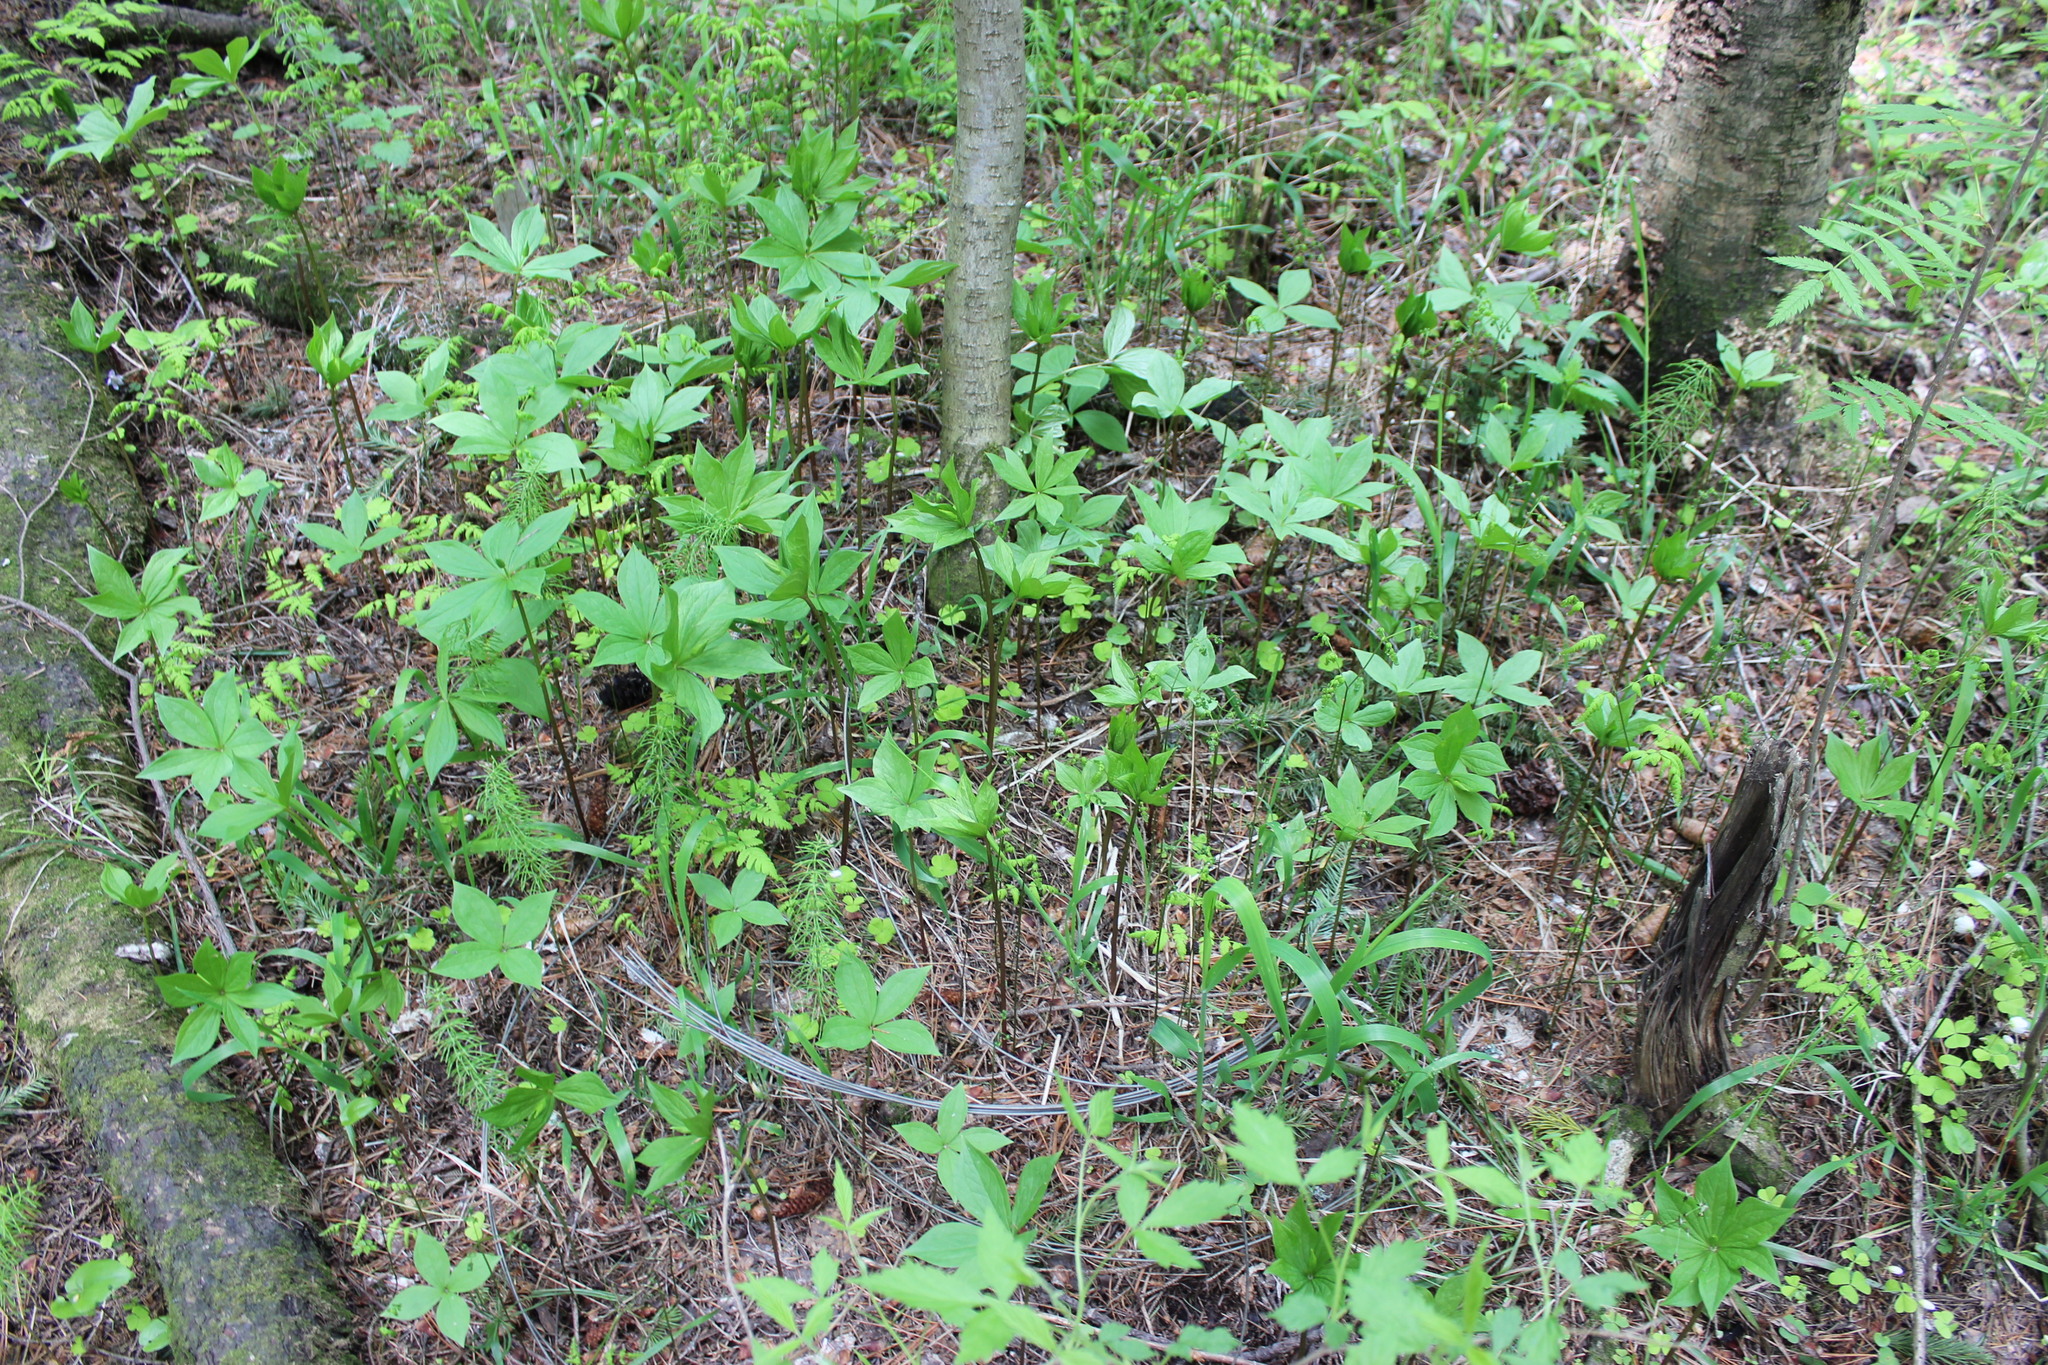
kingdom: Plantae
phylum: Tracheophyta
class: Liliopsida
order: Liliales
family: Melanthiaceae
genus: Paris
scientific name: Paris quadrifolia
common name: Herb-paris
